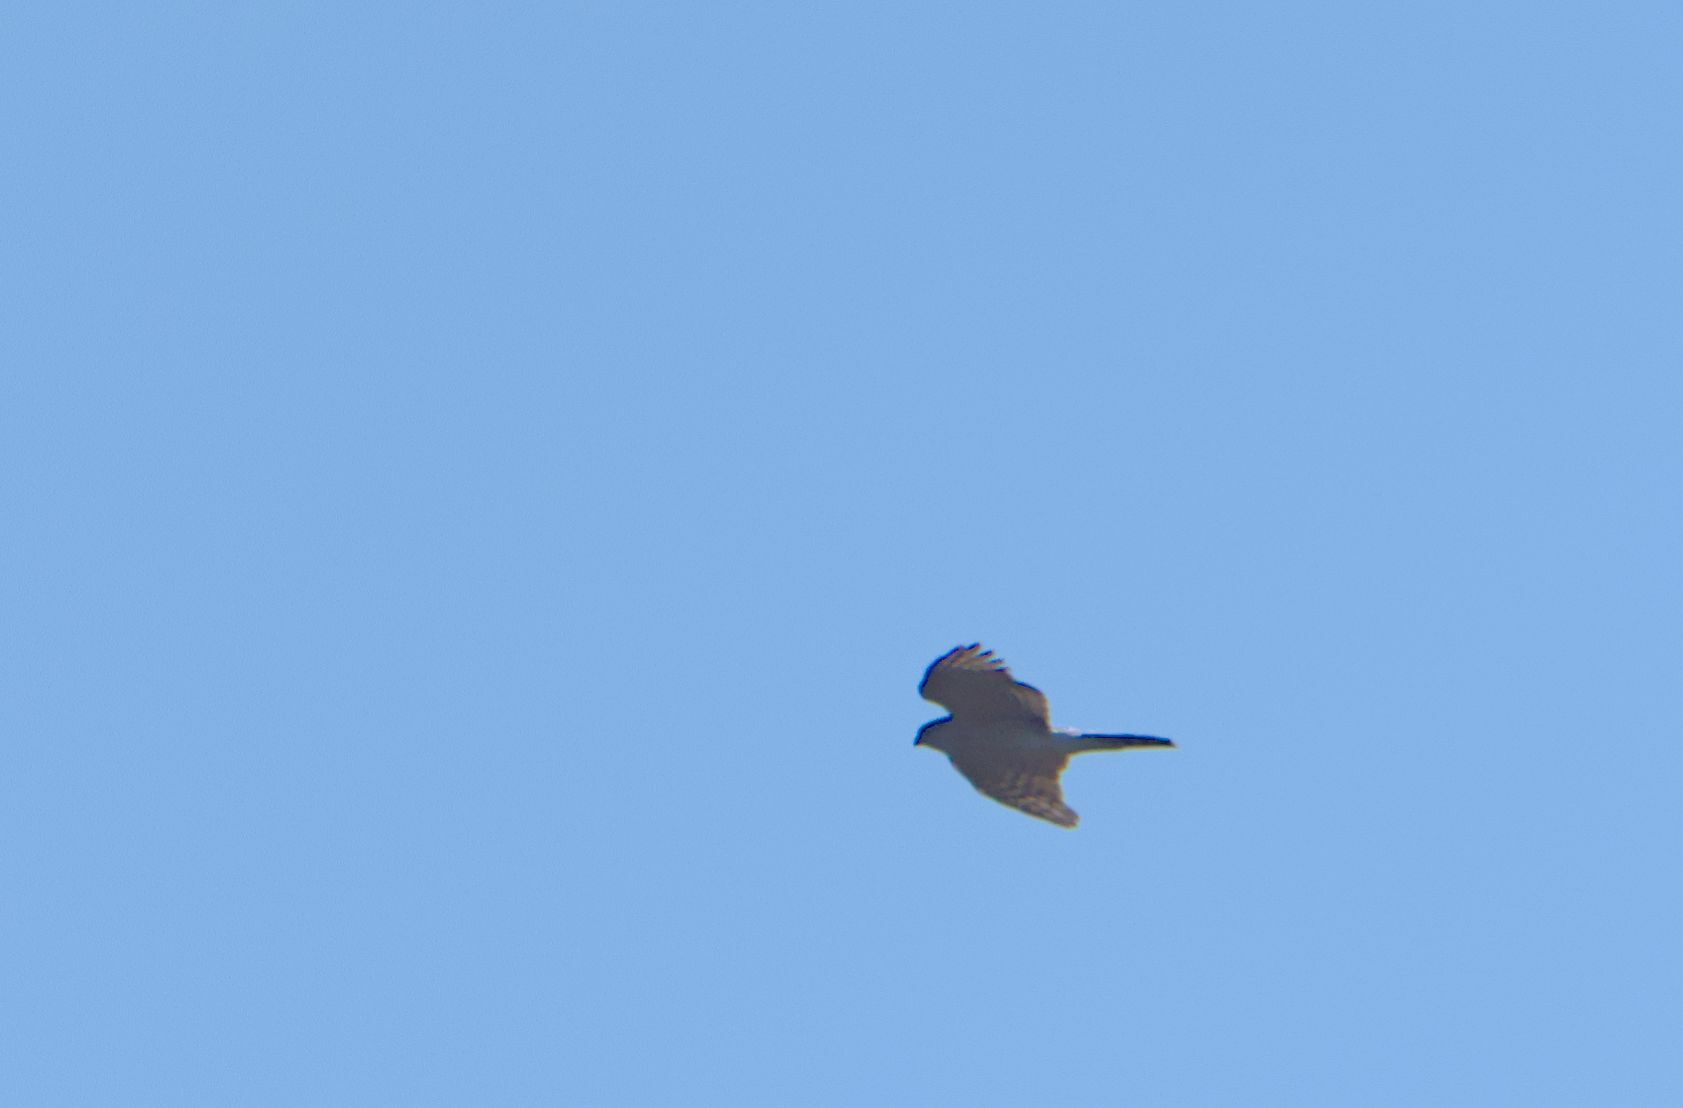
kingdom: Animalia
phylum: Chordata
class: Aves
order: Accipitriformes
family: Accipitridae
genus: Accipiter
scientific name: Accipiter striatus
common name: Sharp-shinned hawk
